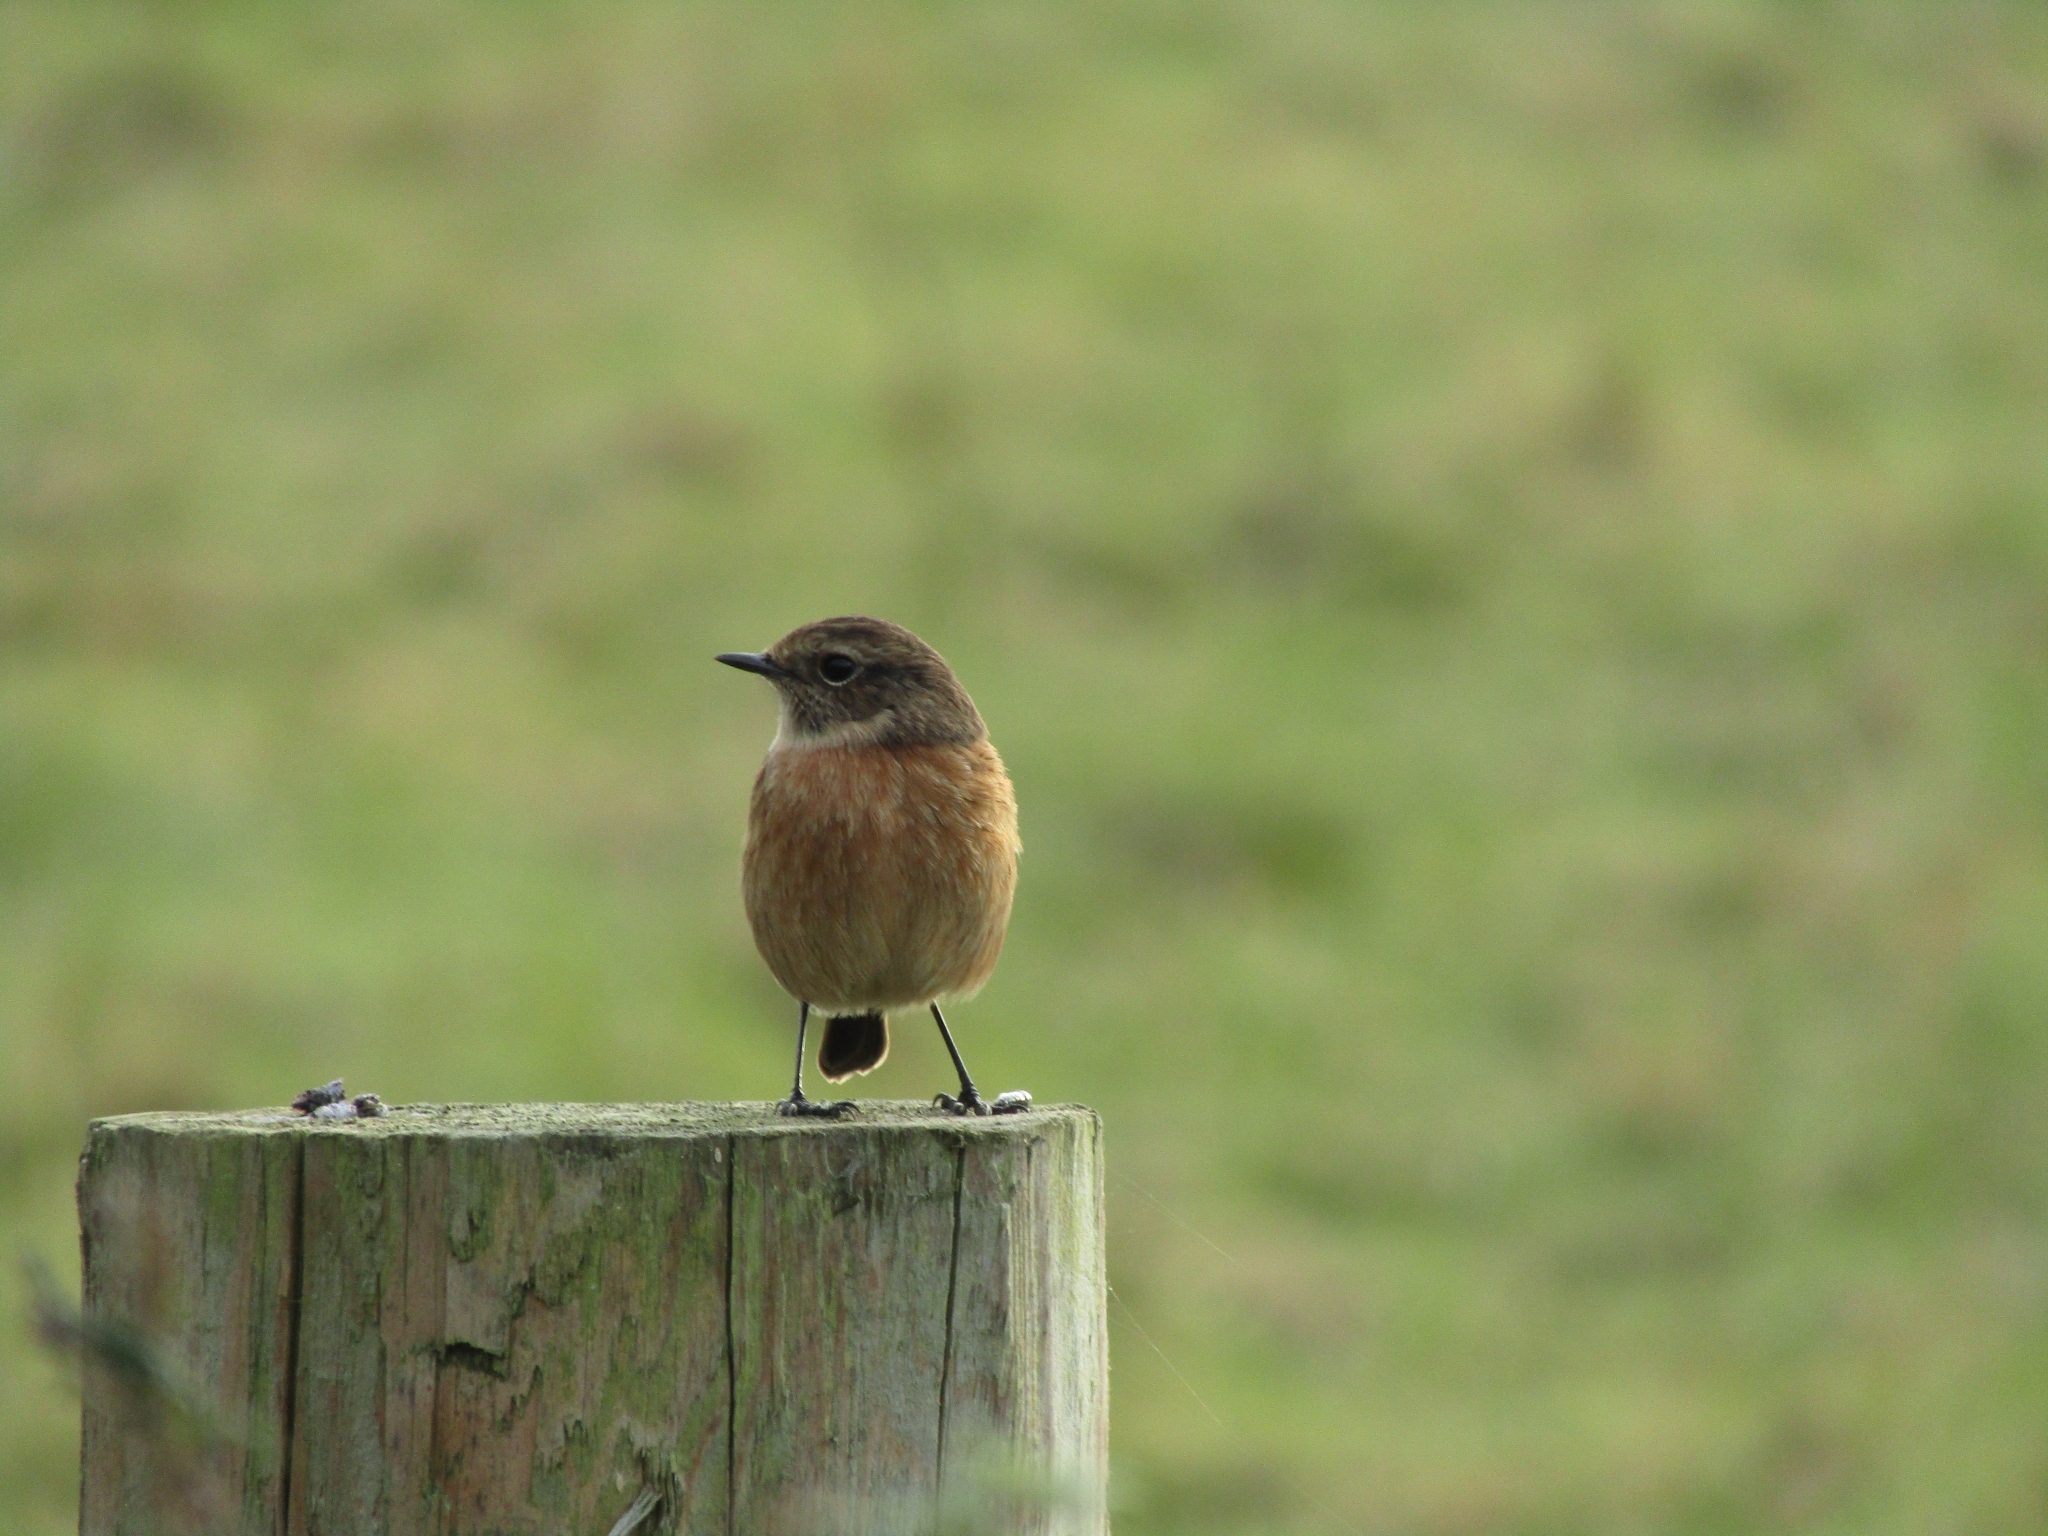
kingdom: Animalia
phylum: Chordata
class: Aves
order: Passeriformes
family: Muscicapidae
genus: Saxicola
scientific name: Saxicola rubicola
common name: European stonechat
